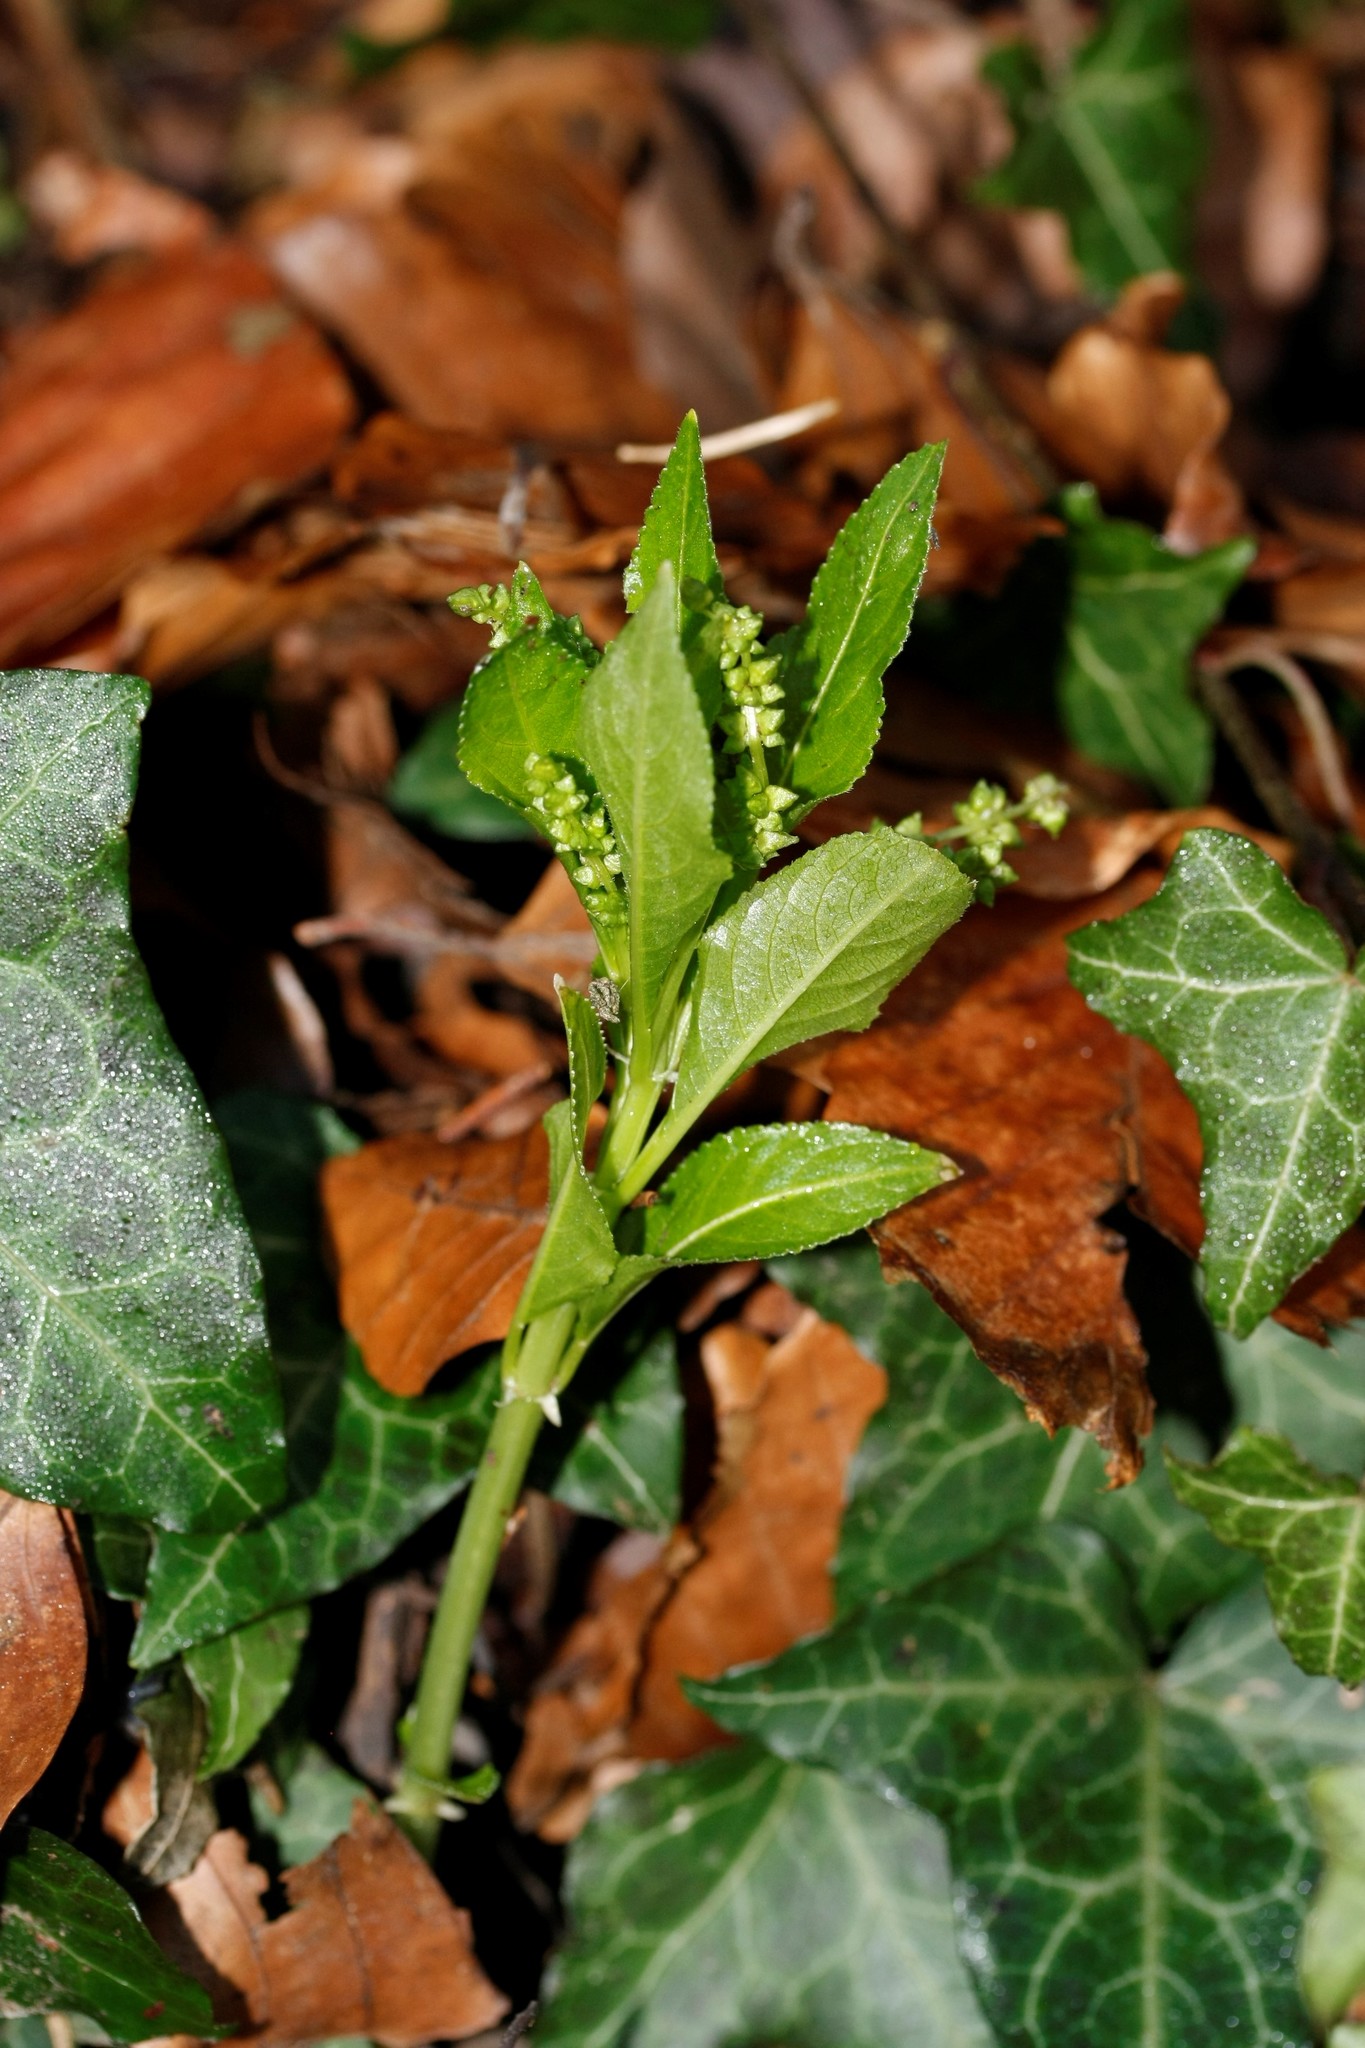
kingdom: Plantae
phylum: Tracheophyta
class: Magnoliopsida
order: Malpighiales
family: Euphorbiaceae
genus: Mercurialis
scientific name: Mercurialis perennis
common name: Dog mercury
